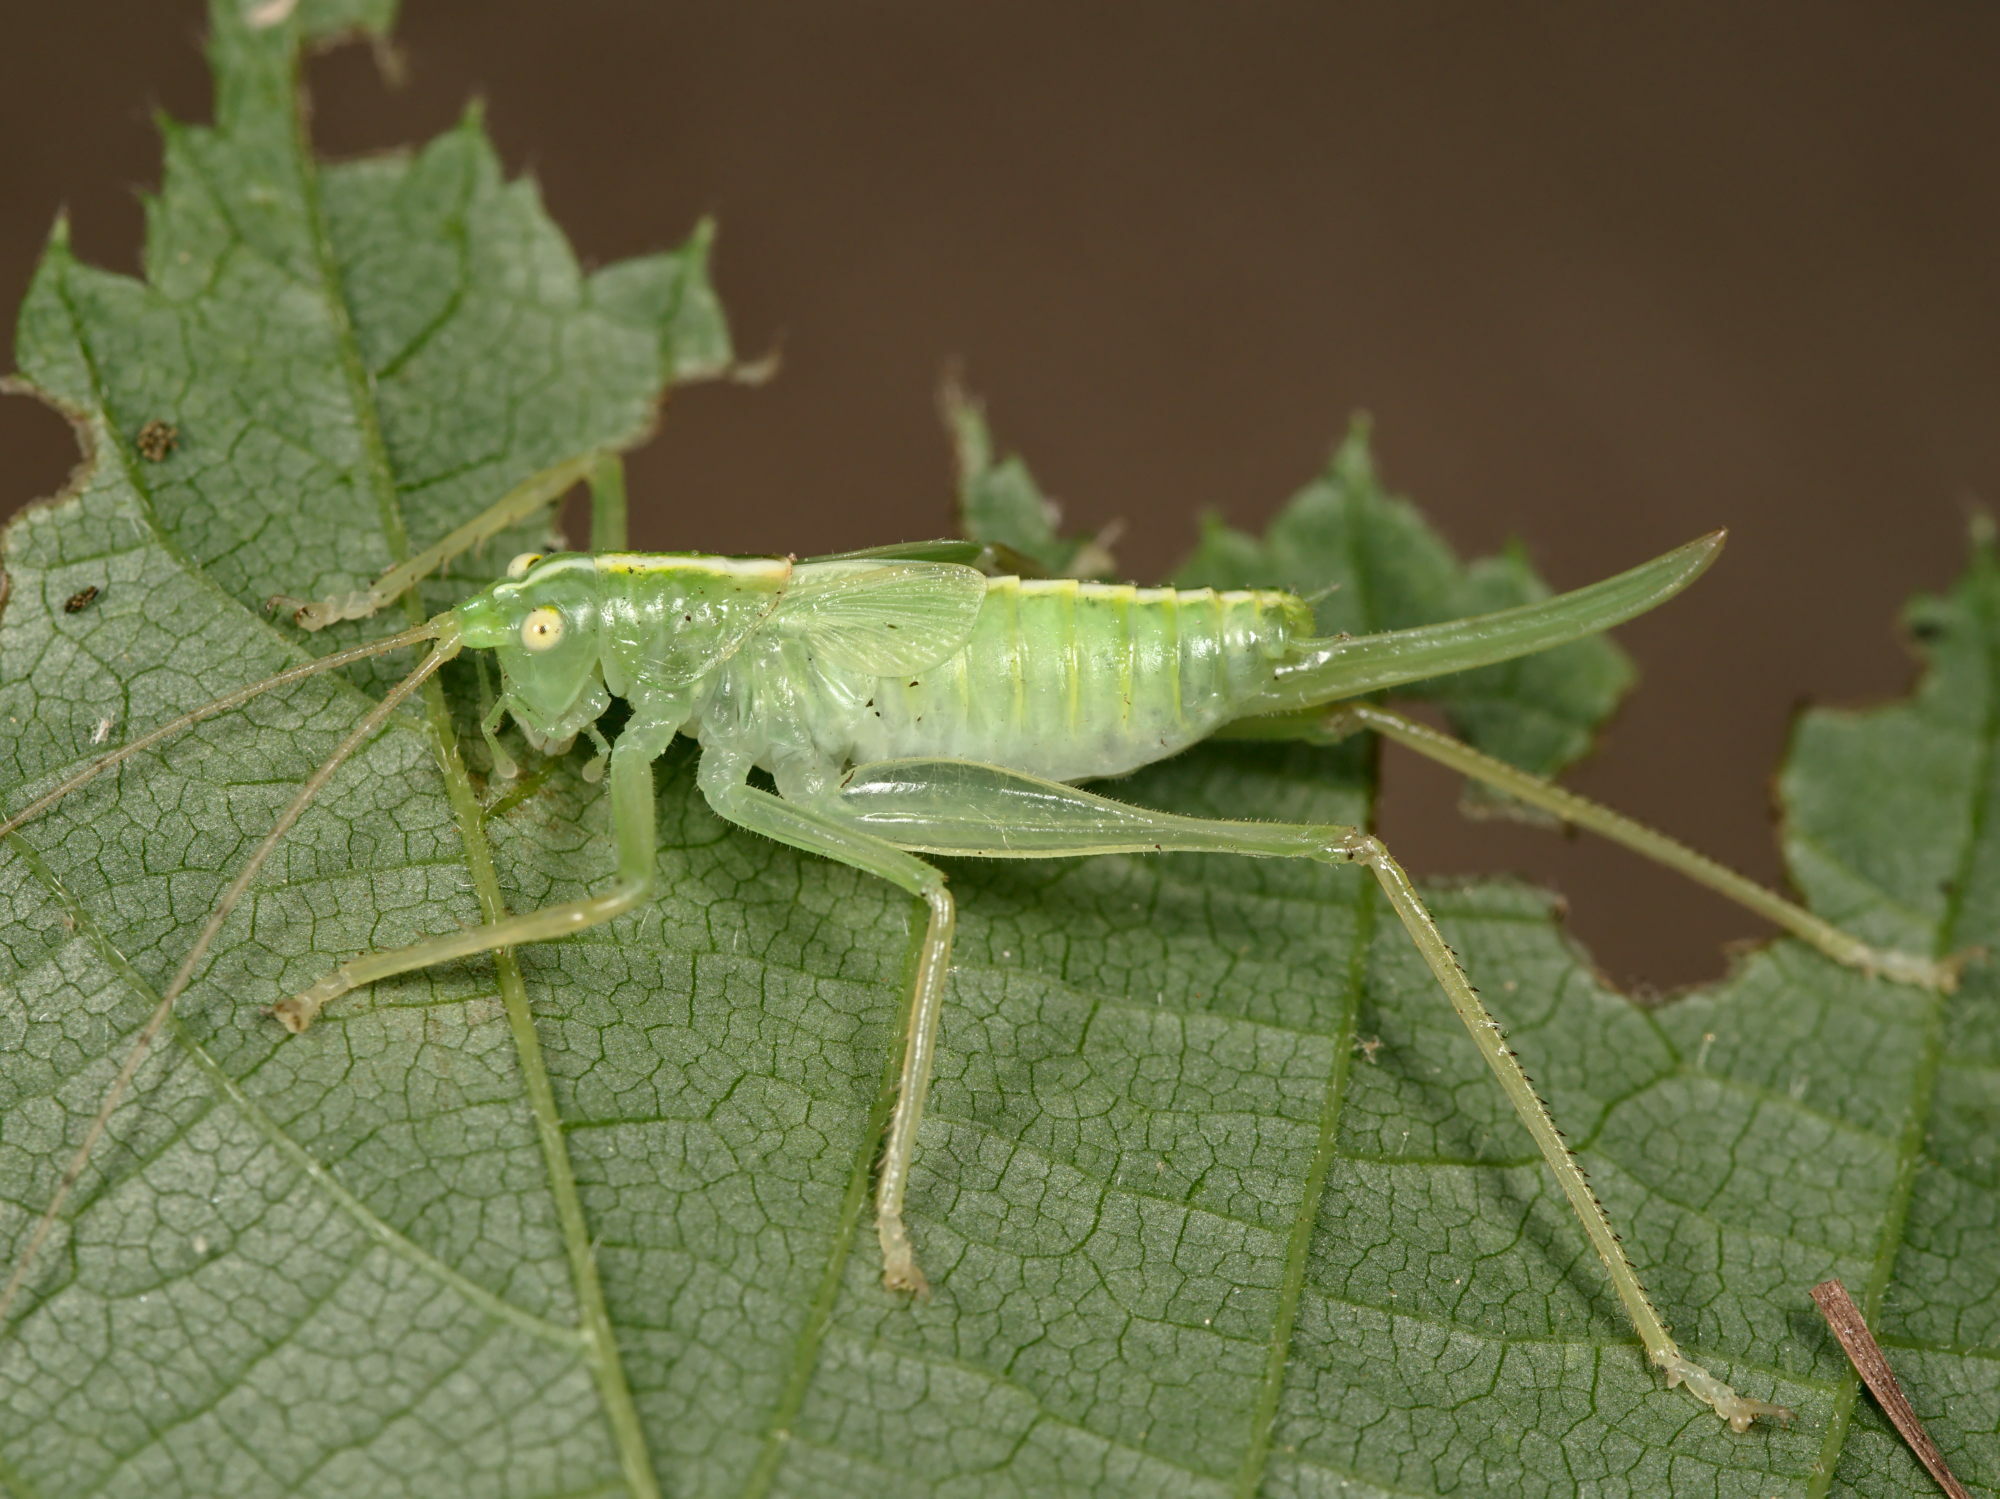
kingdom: Animalia
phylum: Arthropoda
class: Insecta
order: Orthoptera
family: Tettigoniidae
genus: Meconema
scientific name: Meconema thalassinum
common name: Oak bush-cricket
